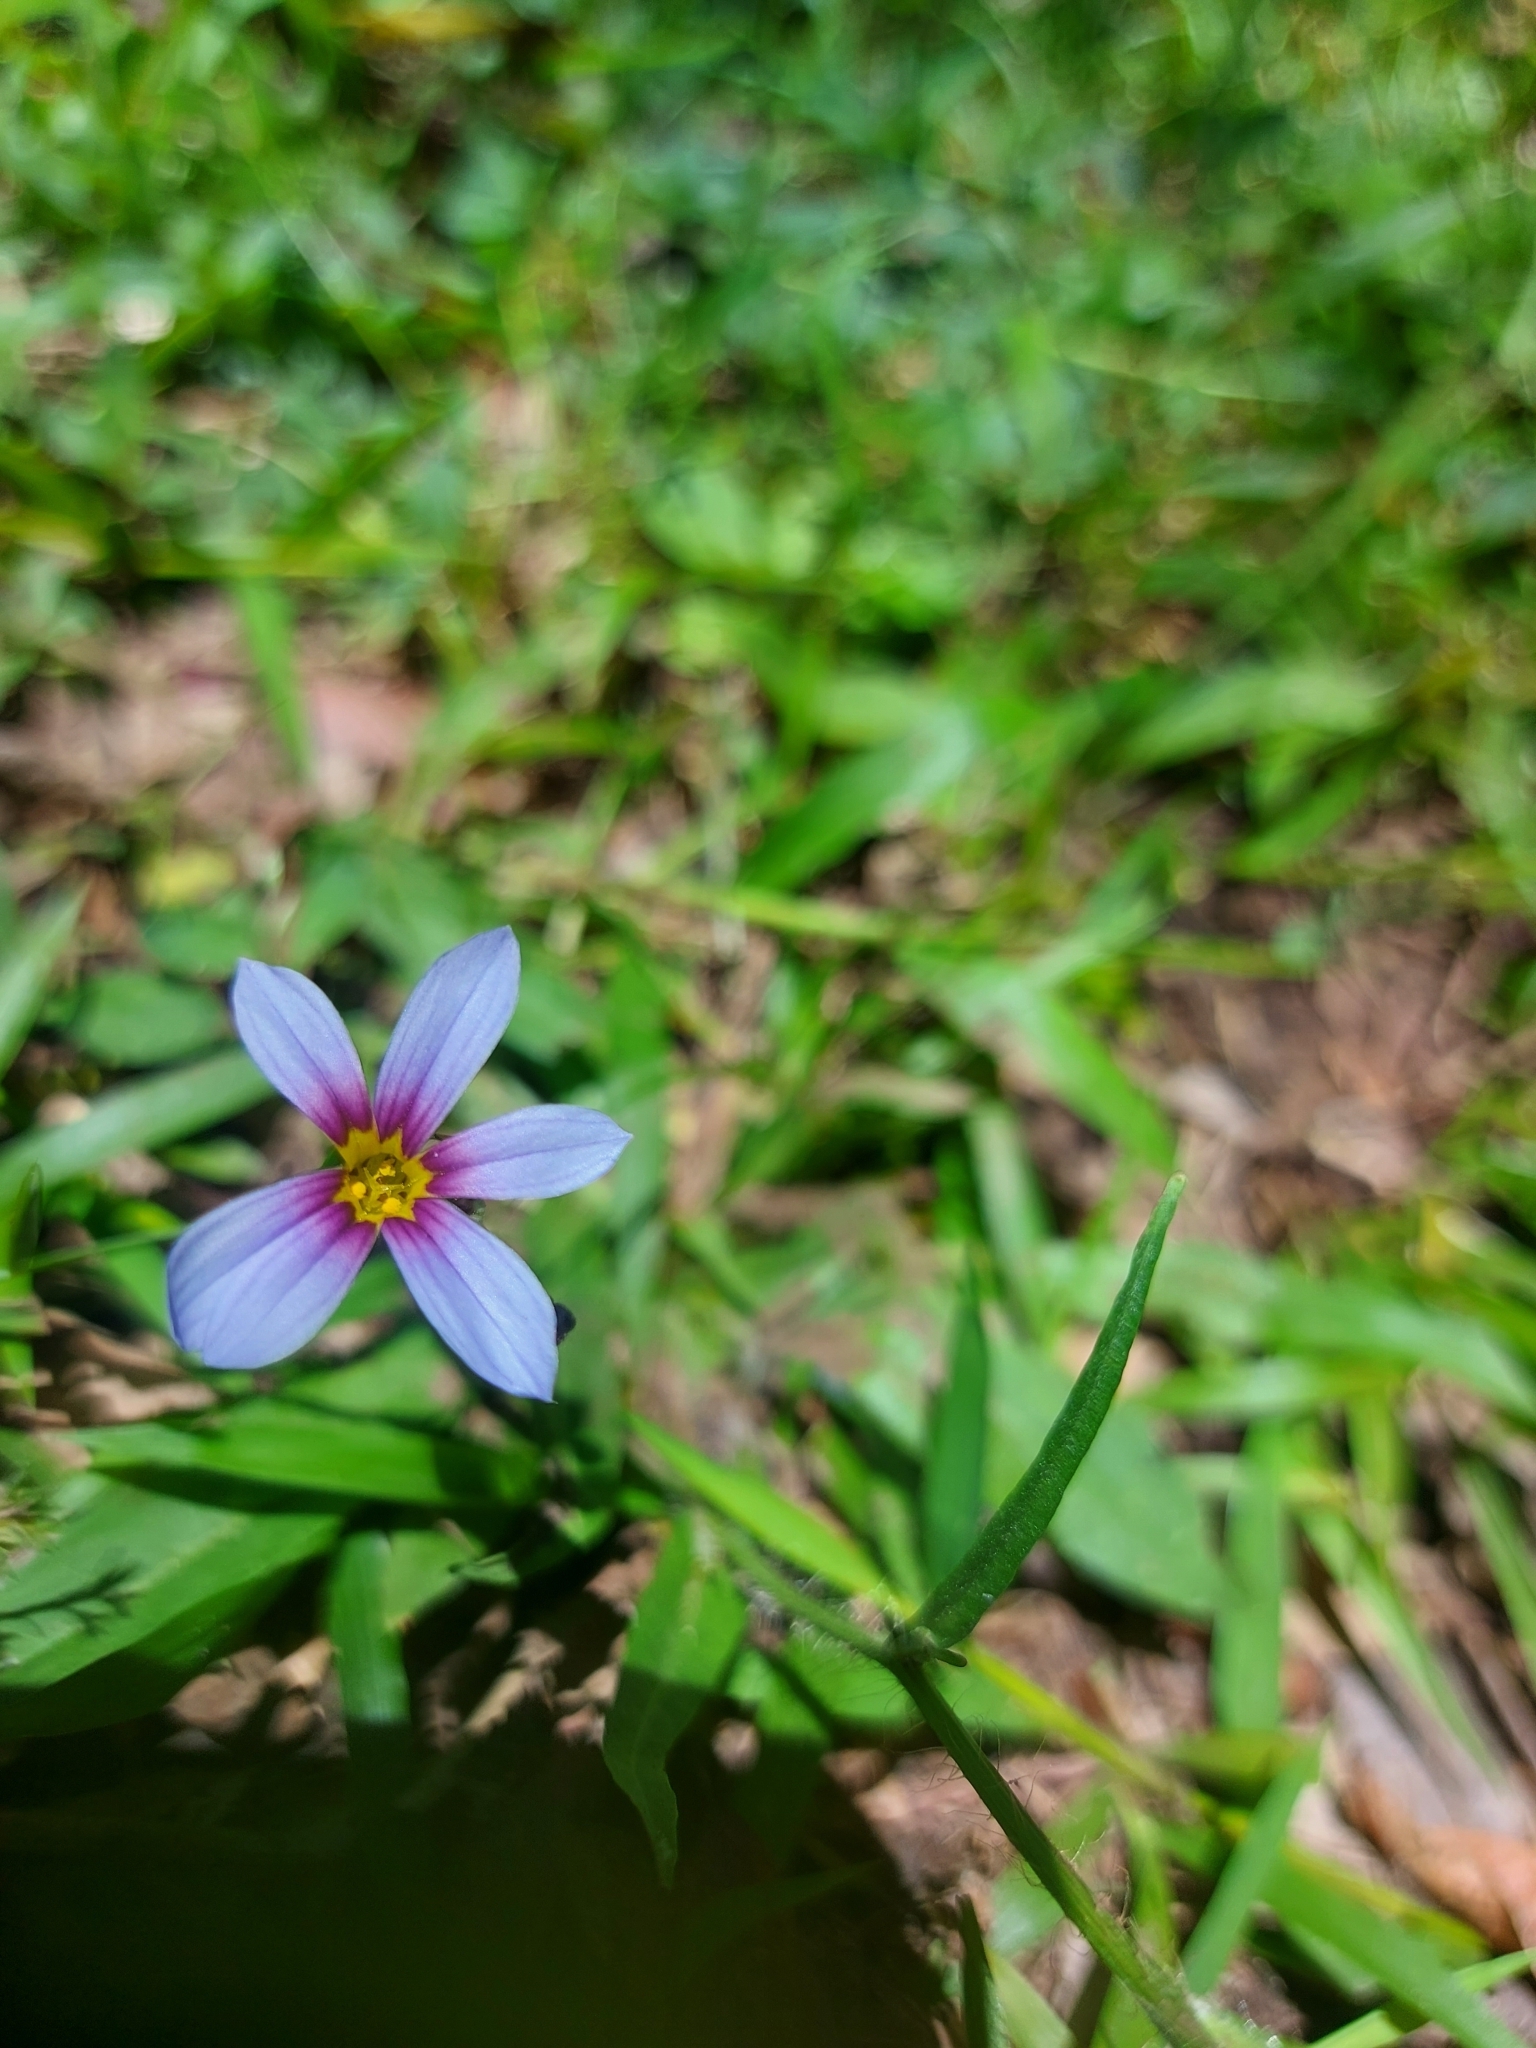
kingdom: Plantae
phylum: Tracheophyta
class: Liliopsida
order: Asparagales
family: Iridaceae
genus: Sisyrinchium
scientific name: Sisyrinchium micranthum
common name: Bermuda pigroot
